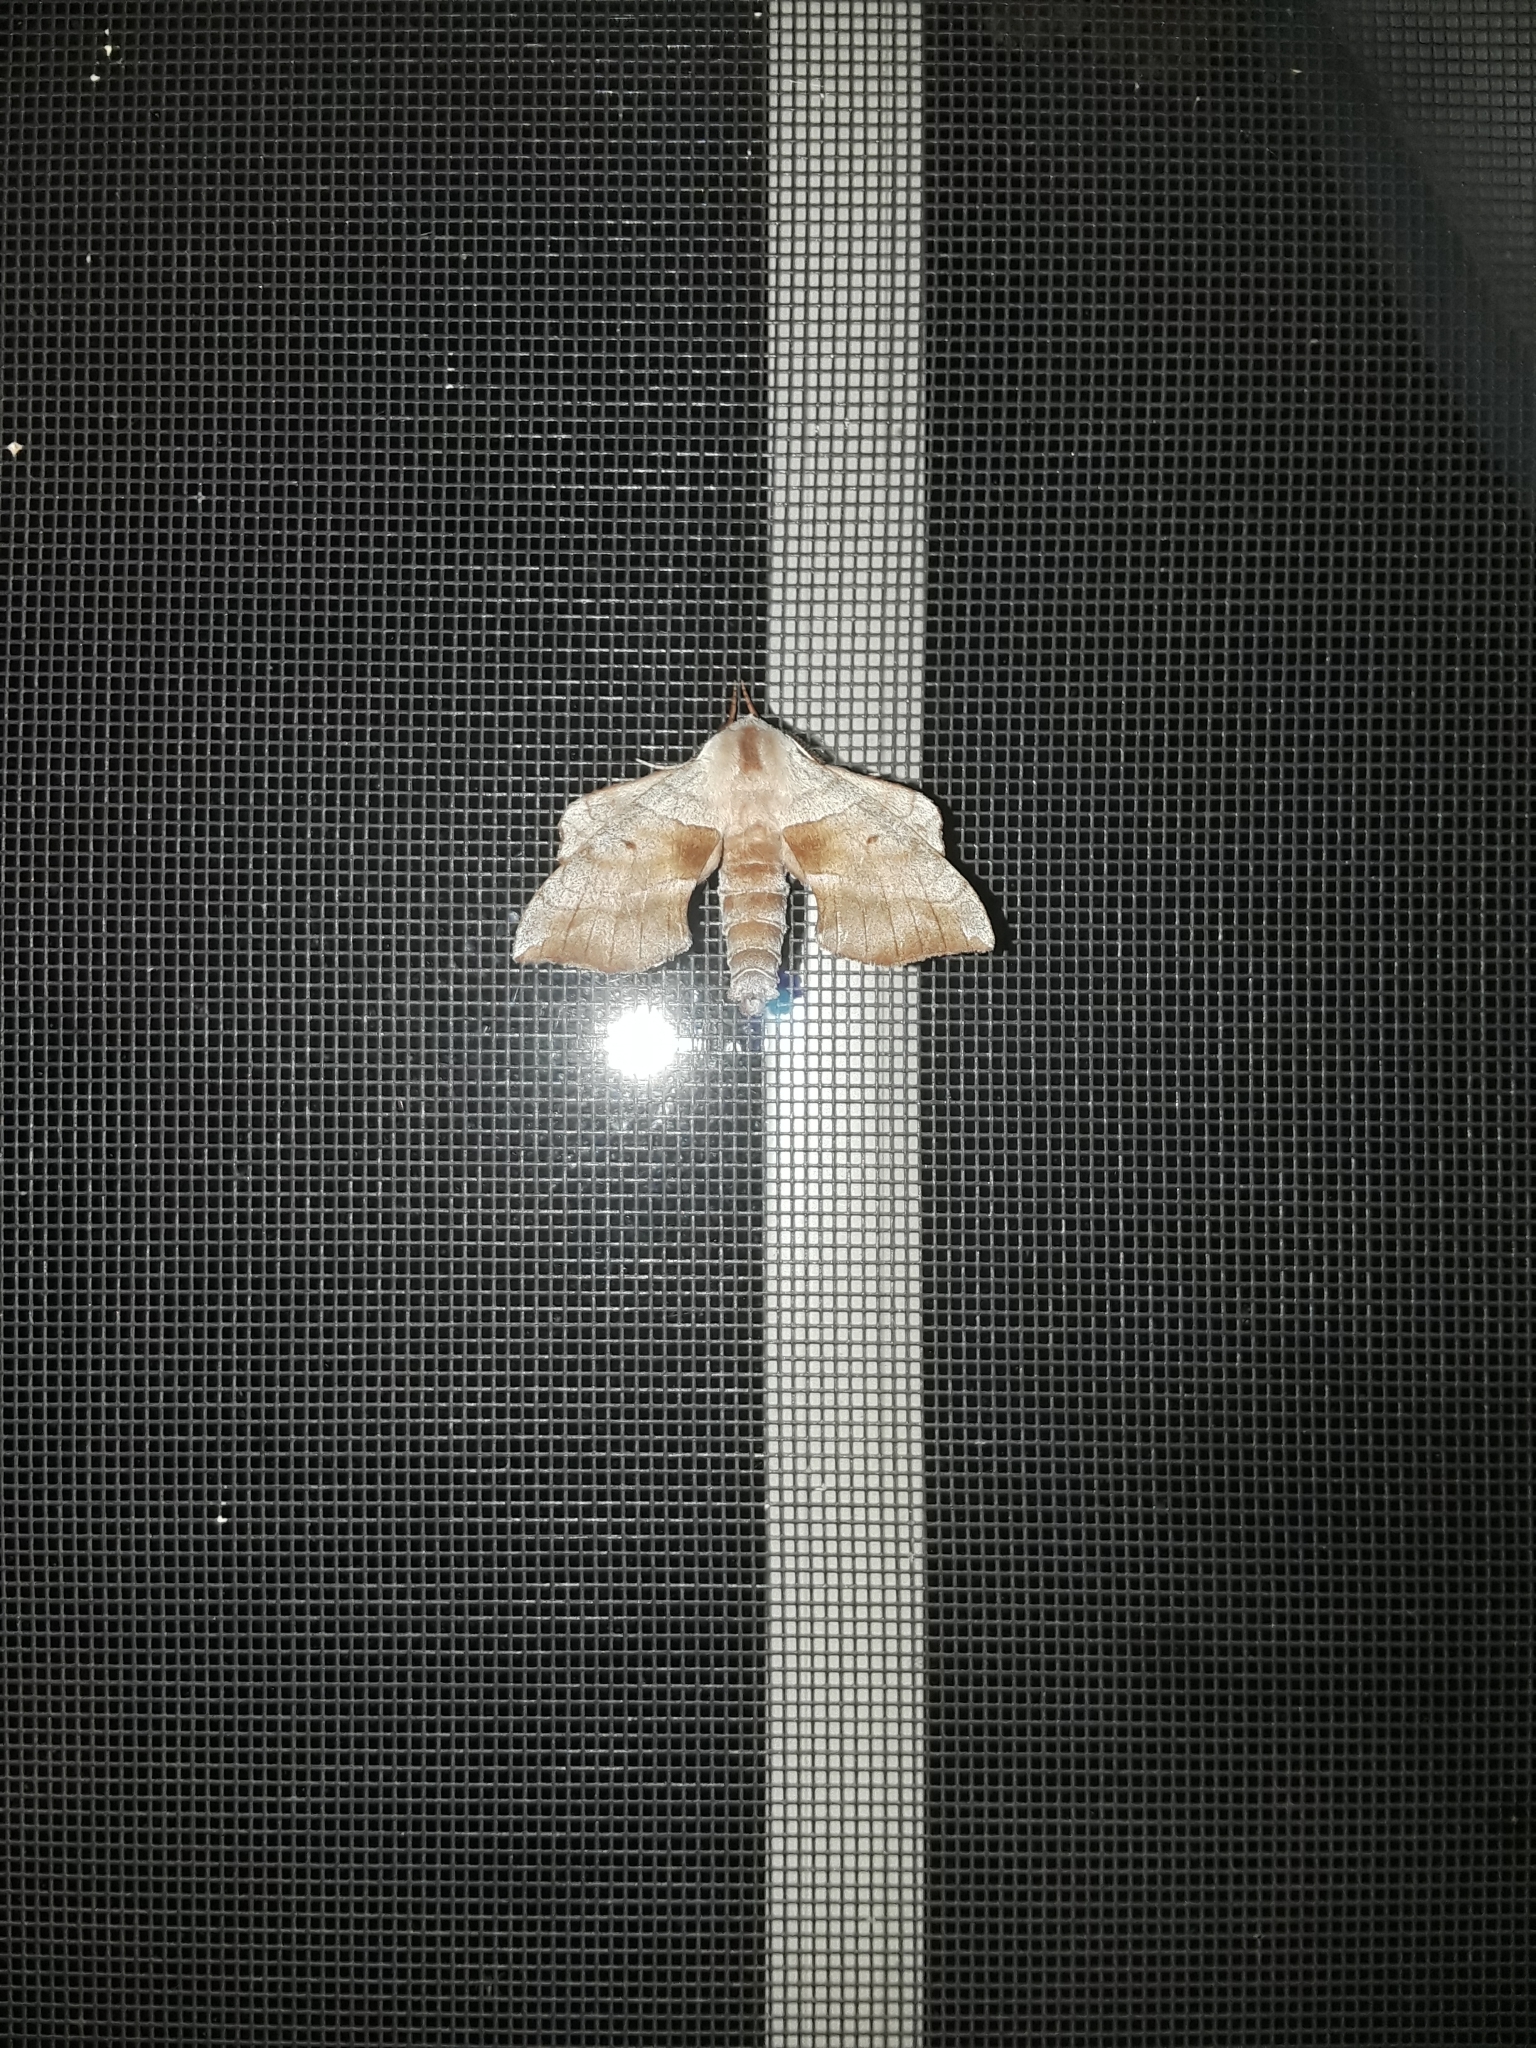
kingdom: Animalia
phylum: Arthropoda
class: Insecta
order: Lepidoptera
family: Sphingidae
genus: Amorpha
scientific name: Amorpha juglandis
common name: Walnut sphinx
